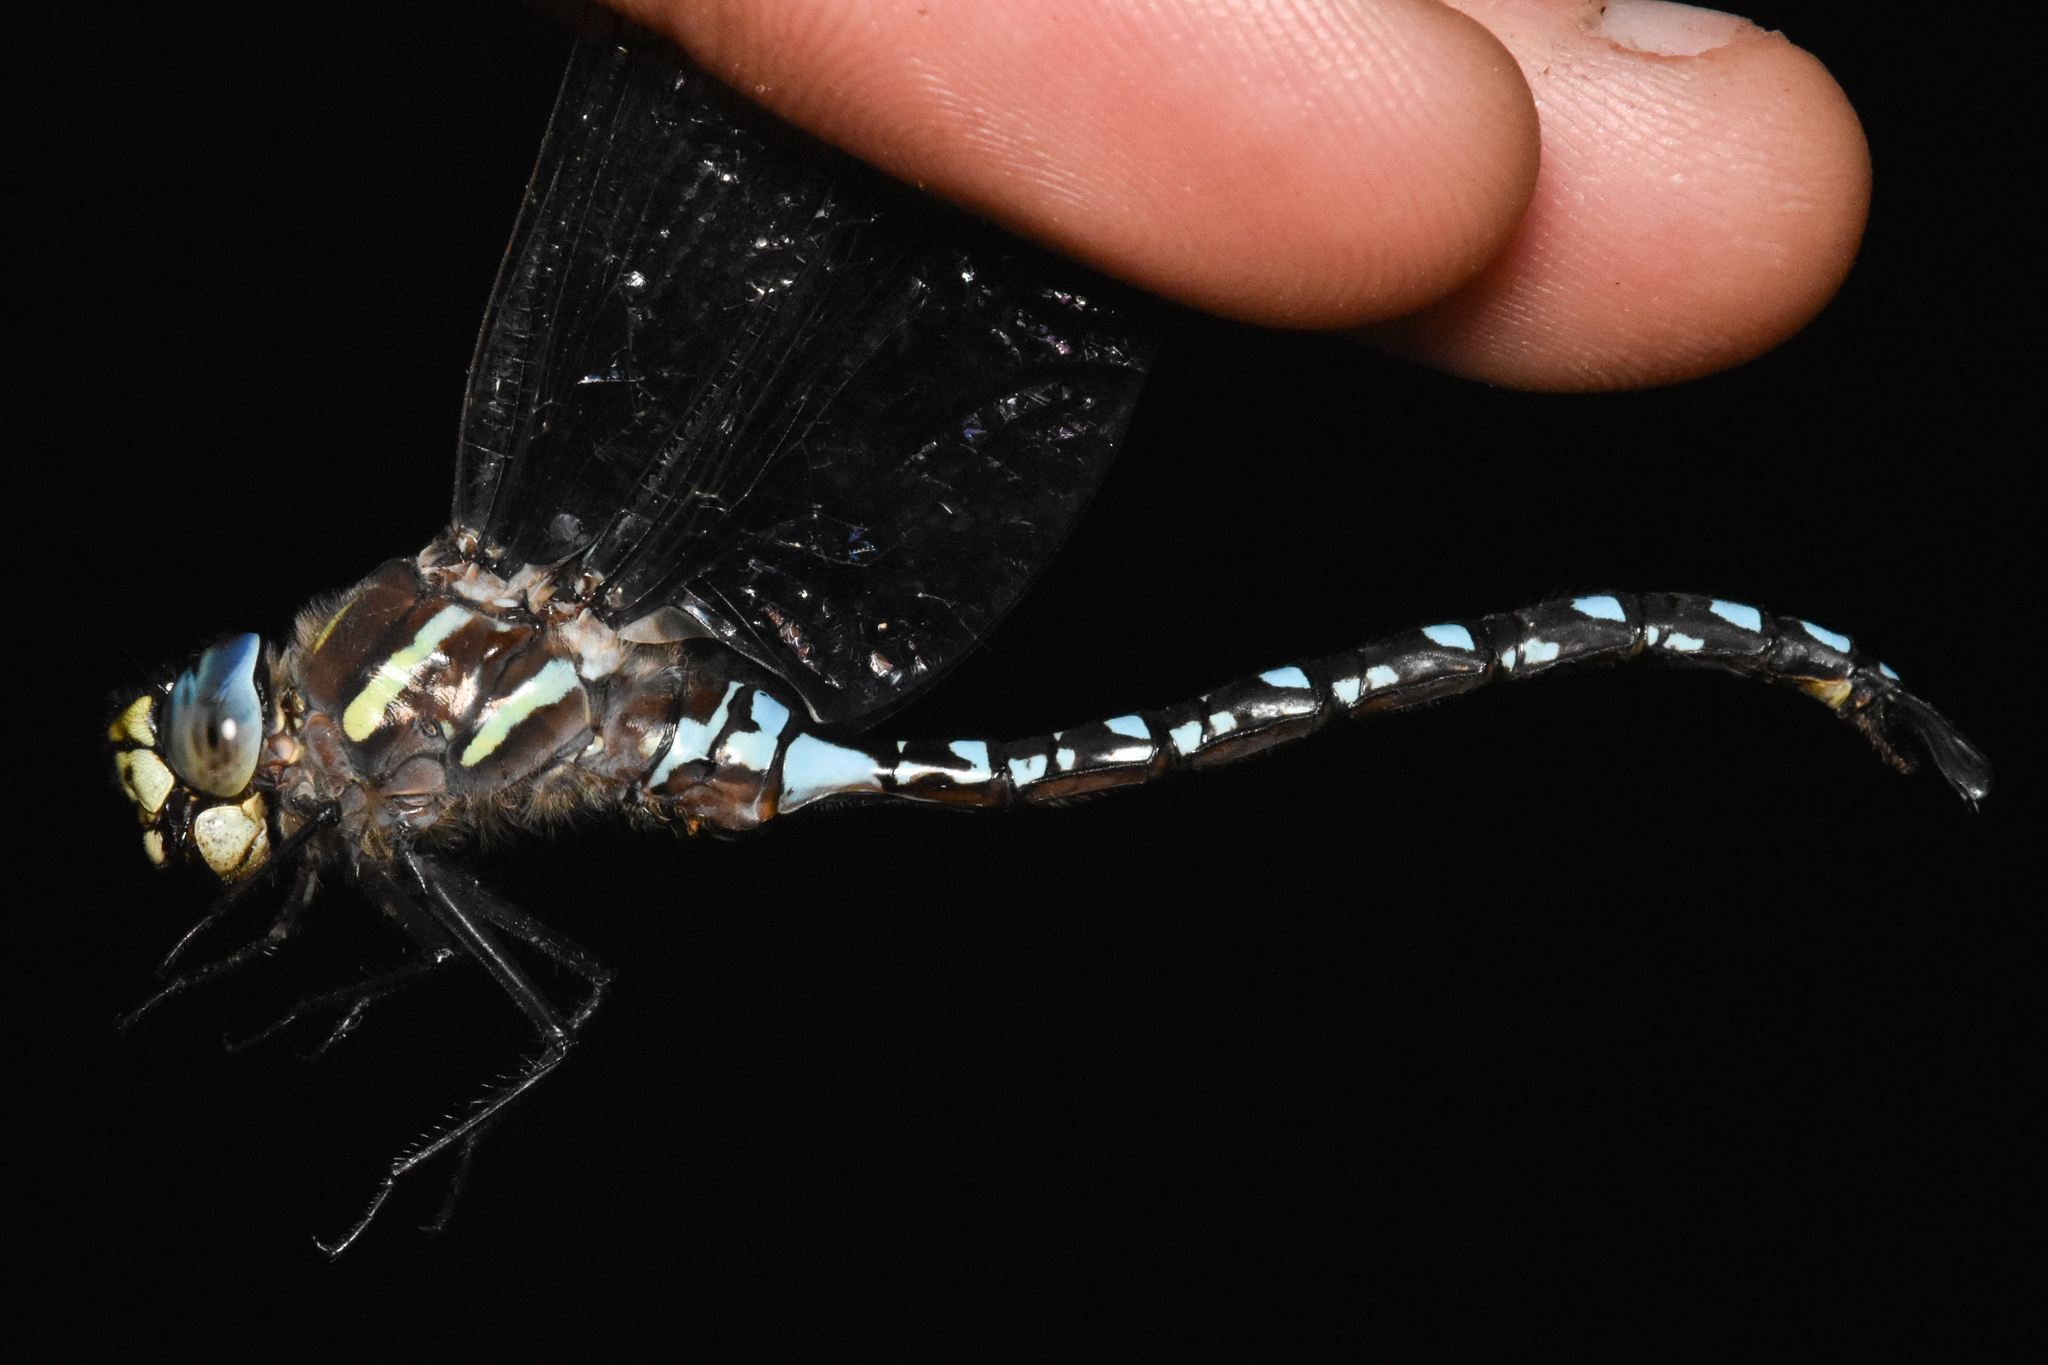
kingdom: Animalia
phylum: Arthropoda
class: Insecta
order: Odonata
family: Aeshnidae
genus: Aeshna
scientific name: Aeshna palmata
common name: Paddle-tailed darner
